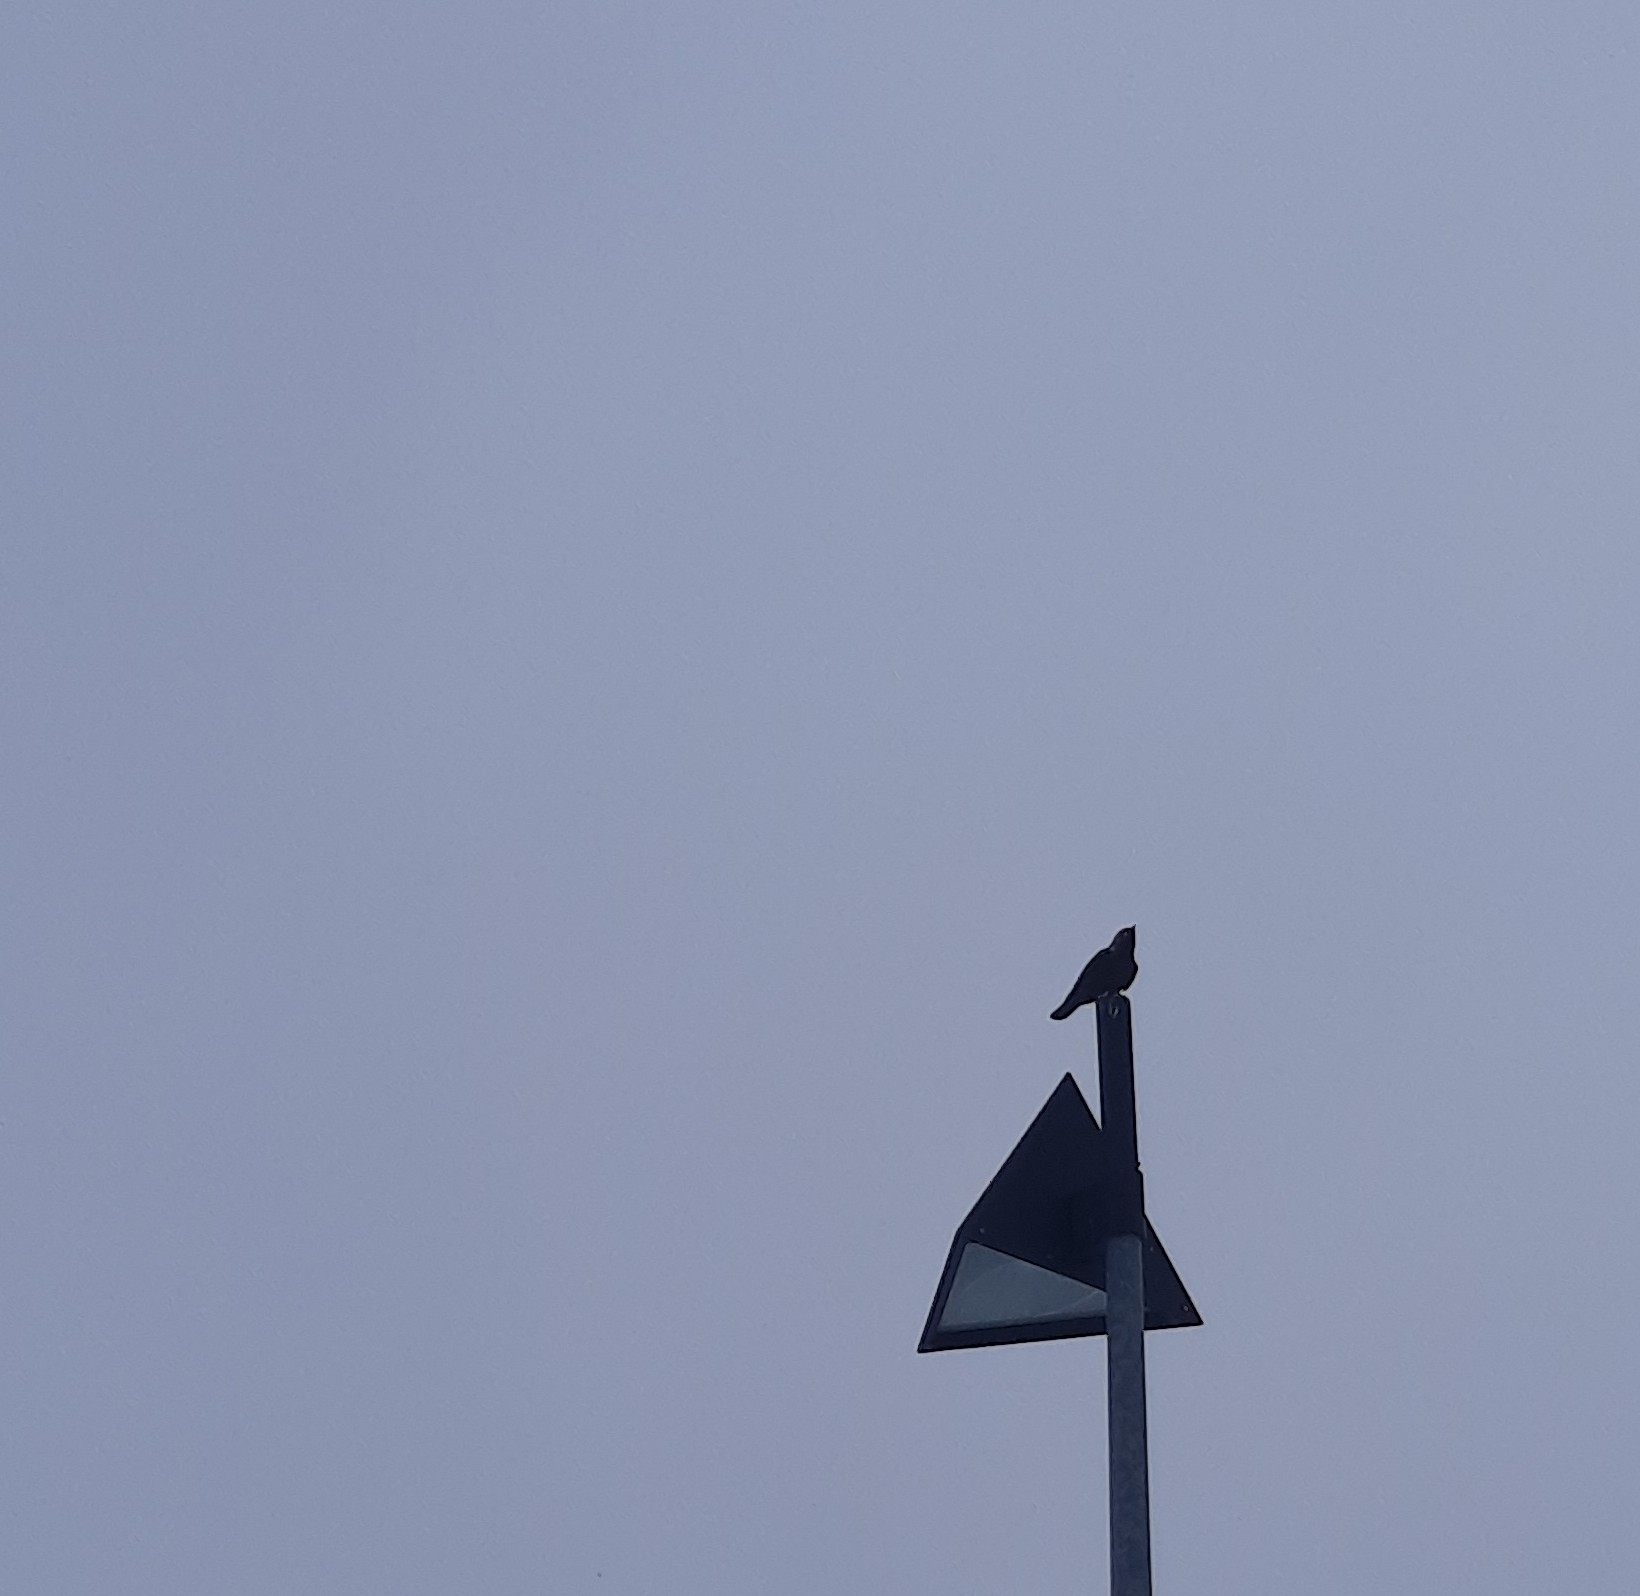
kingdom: Animalia
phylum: Chordata
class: Aves
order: Passeriformes
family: Corvidae
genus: Coloeus
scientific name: Coloeus monedula
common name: Western jackdaw
